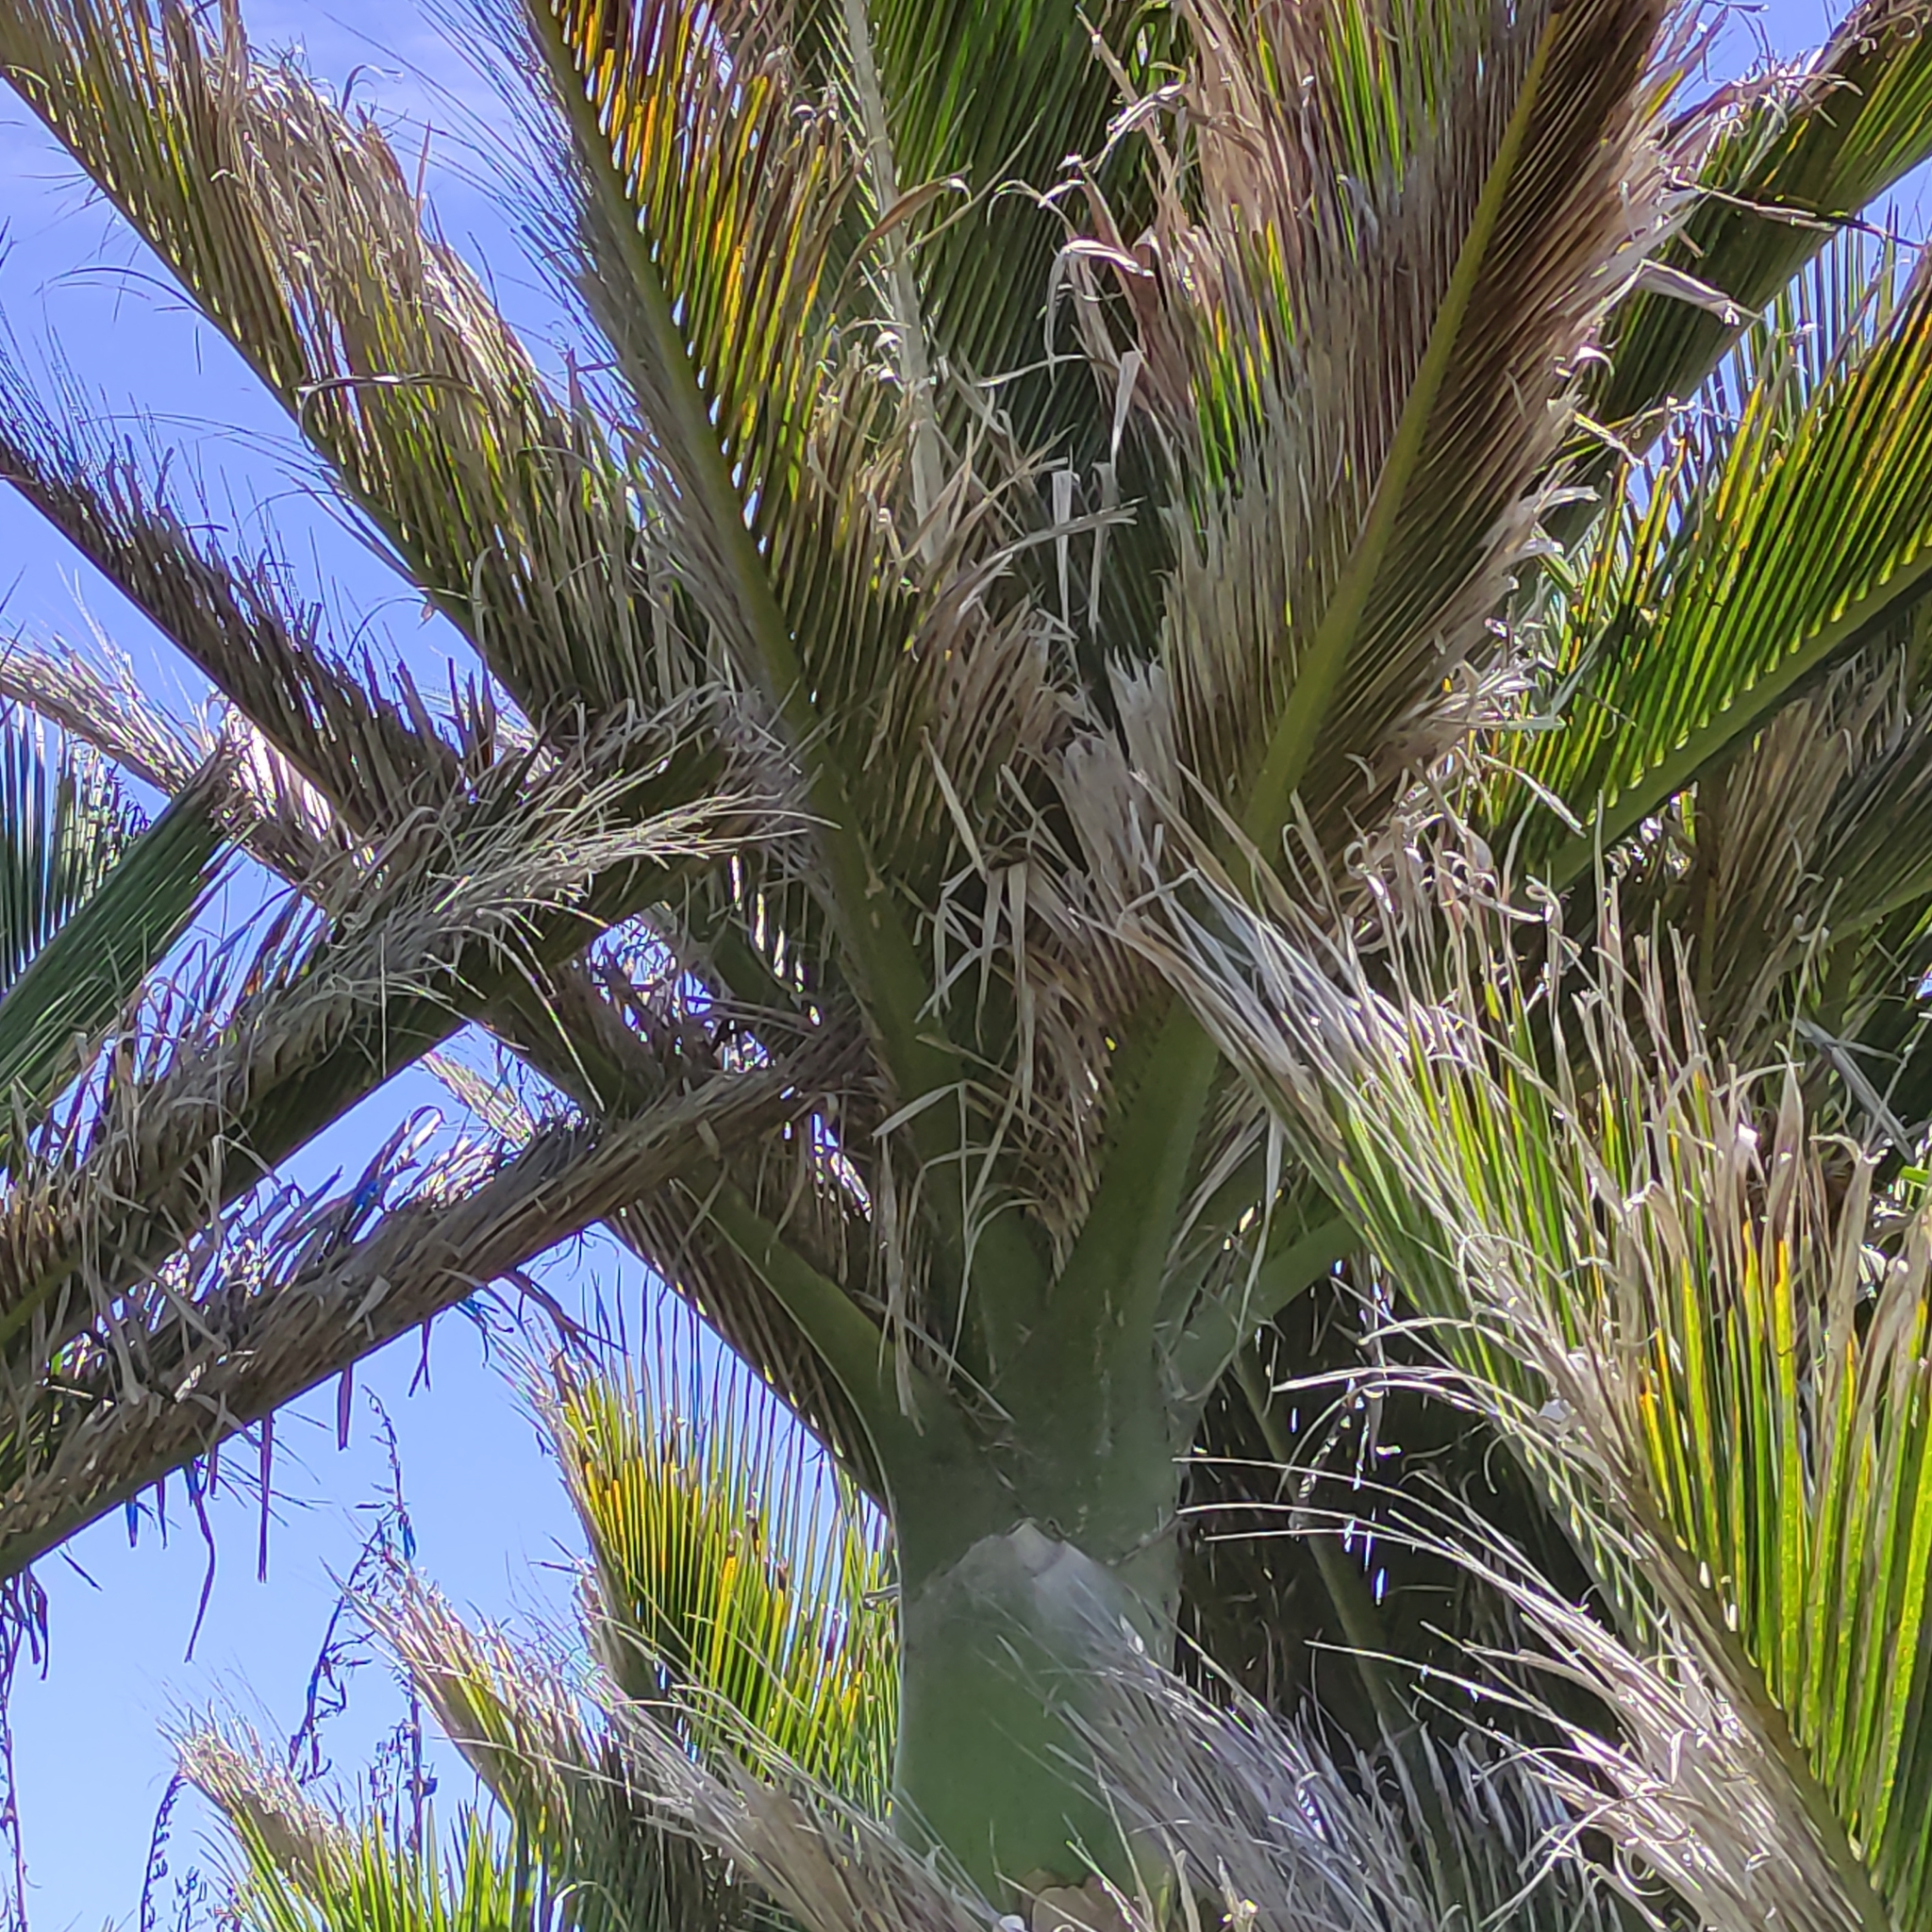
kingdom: Plantae
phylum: Tracheophyta
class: Liliopsida
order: Arecales
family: Arecaceae
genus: Rhopalostylis
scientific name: Rhopalostylis sapida
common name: Feather-duster palm
